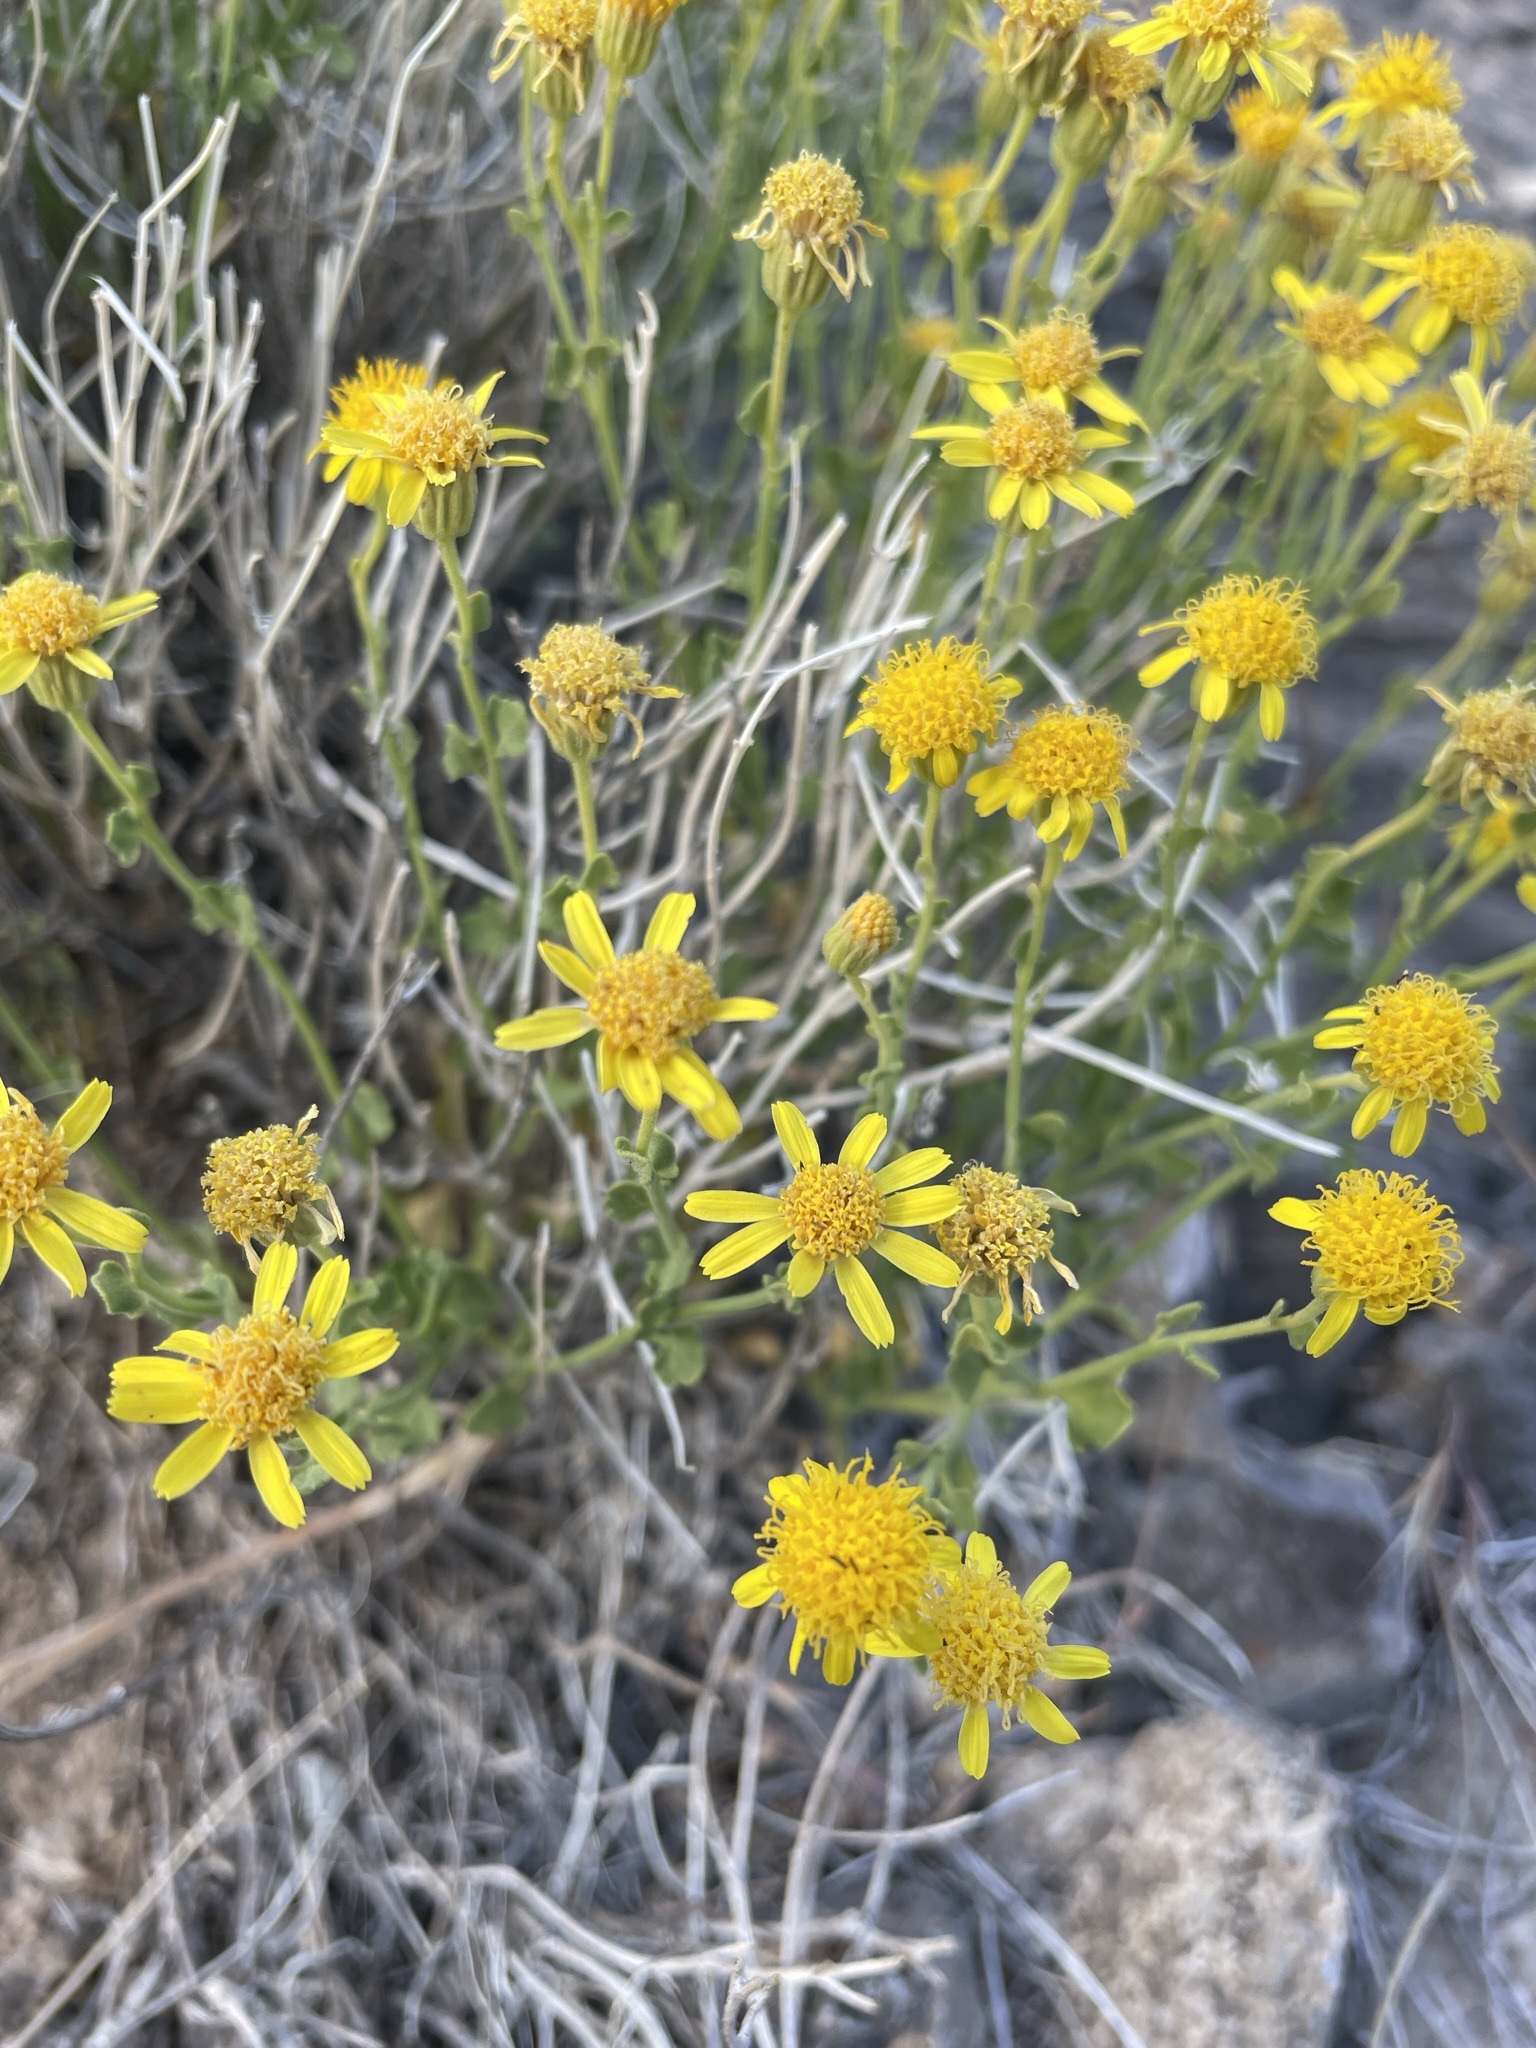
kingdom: Plantae
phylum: Tracheophyta
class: Magnoliopsida
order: Asterales
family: Asteraceae
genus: Laphamia
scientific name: Laphamia stansburyi
